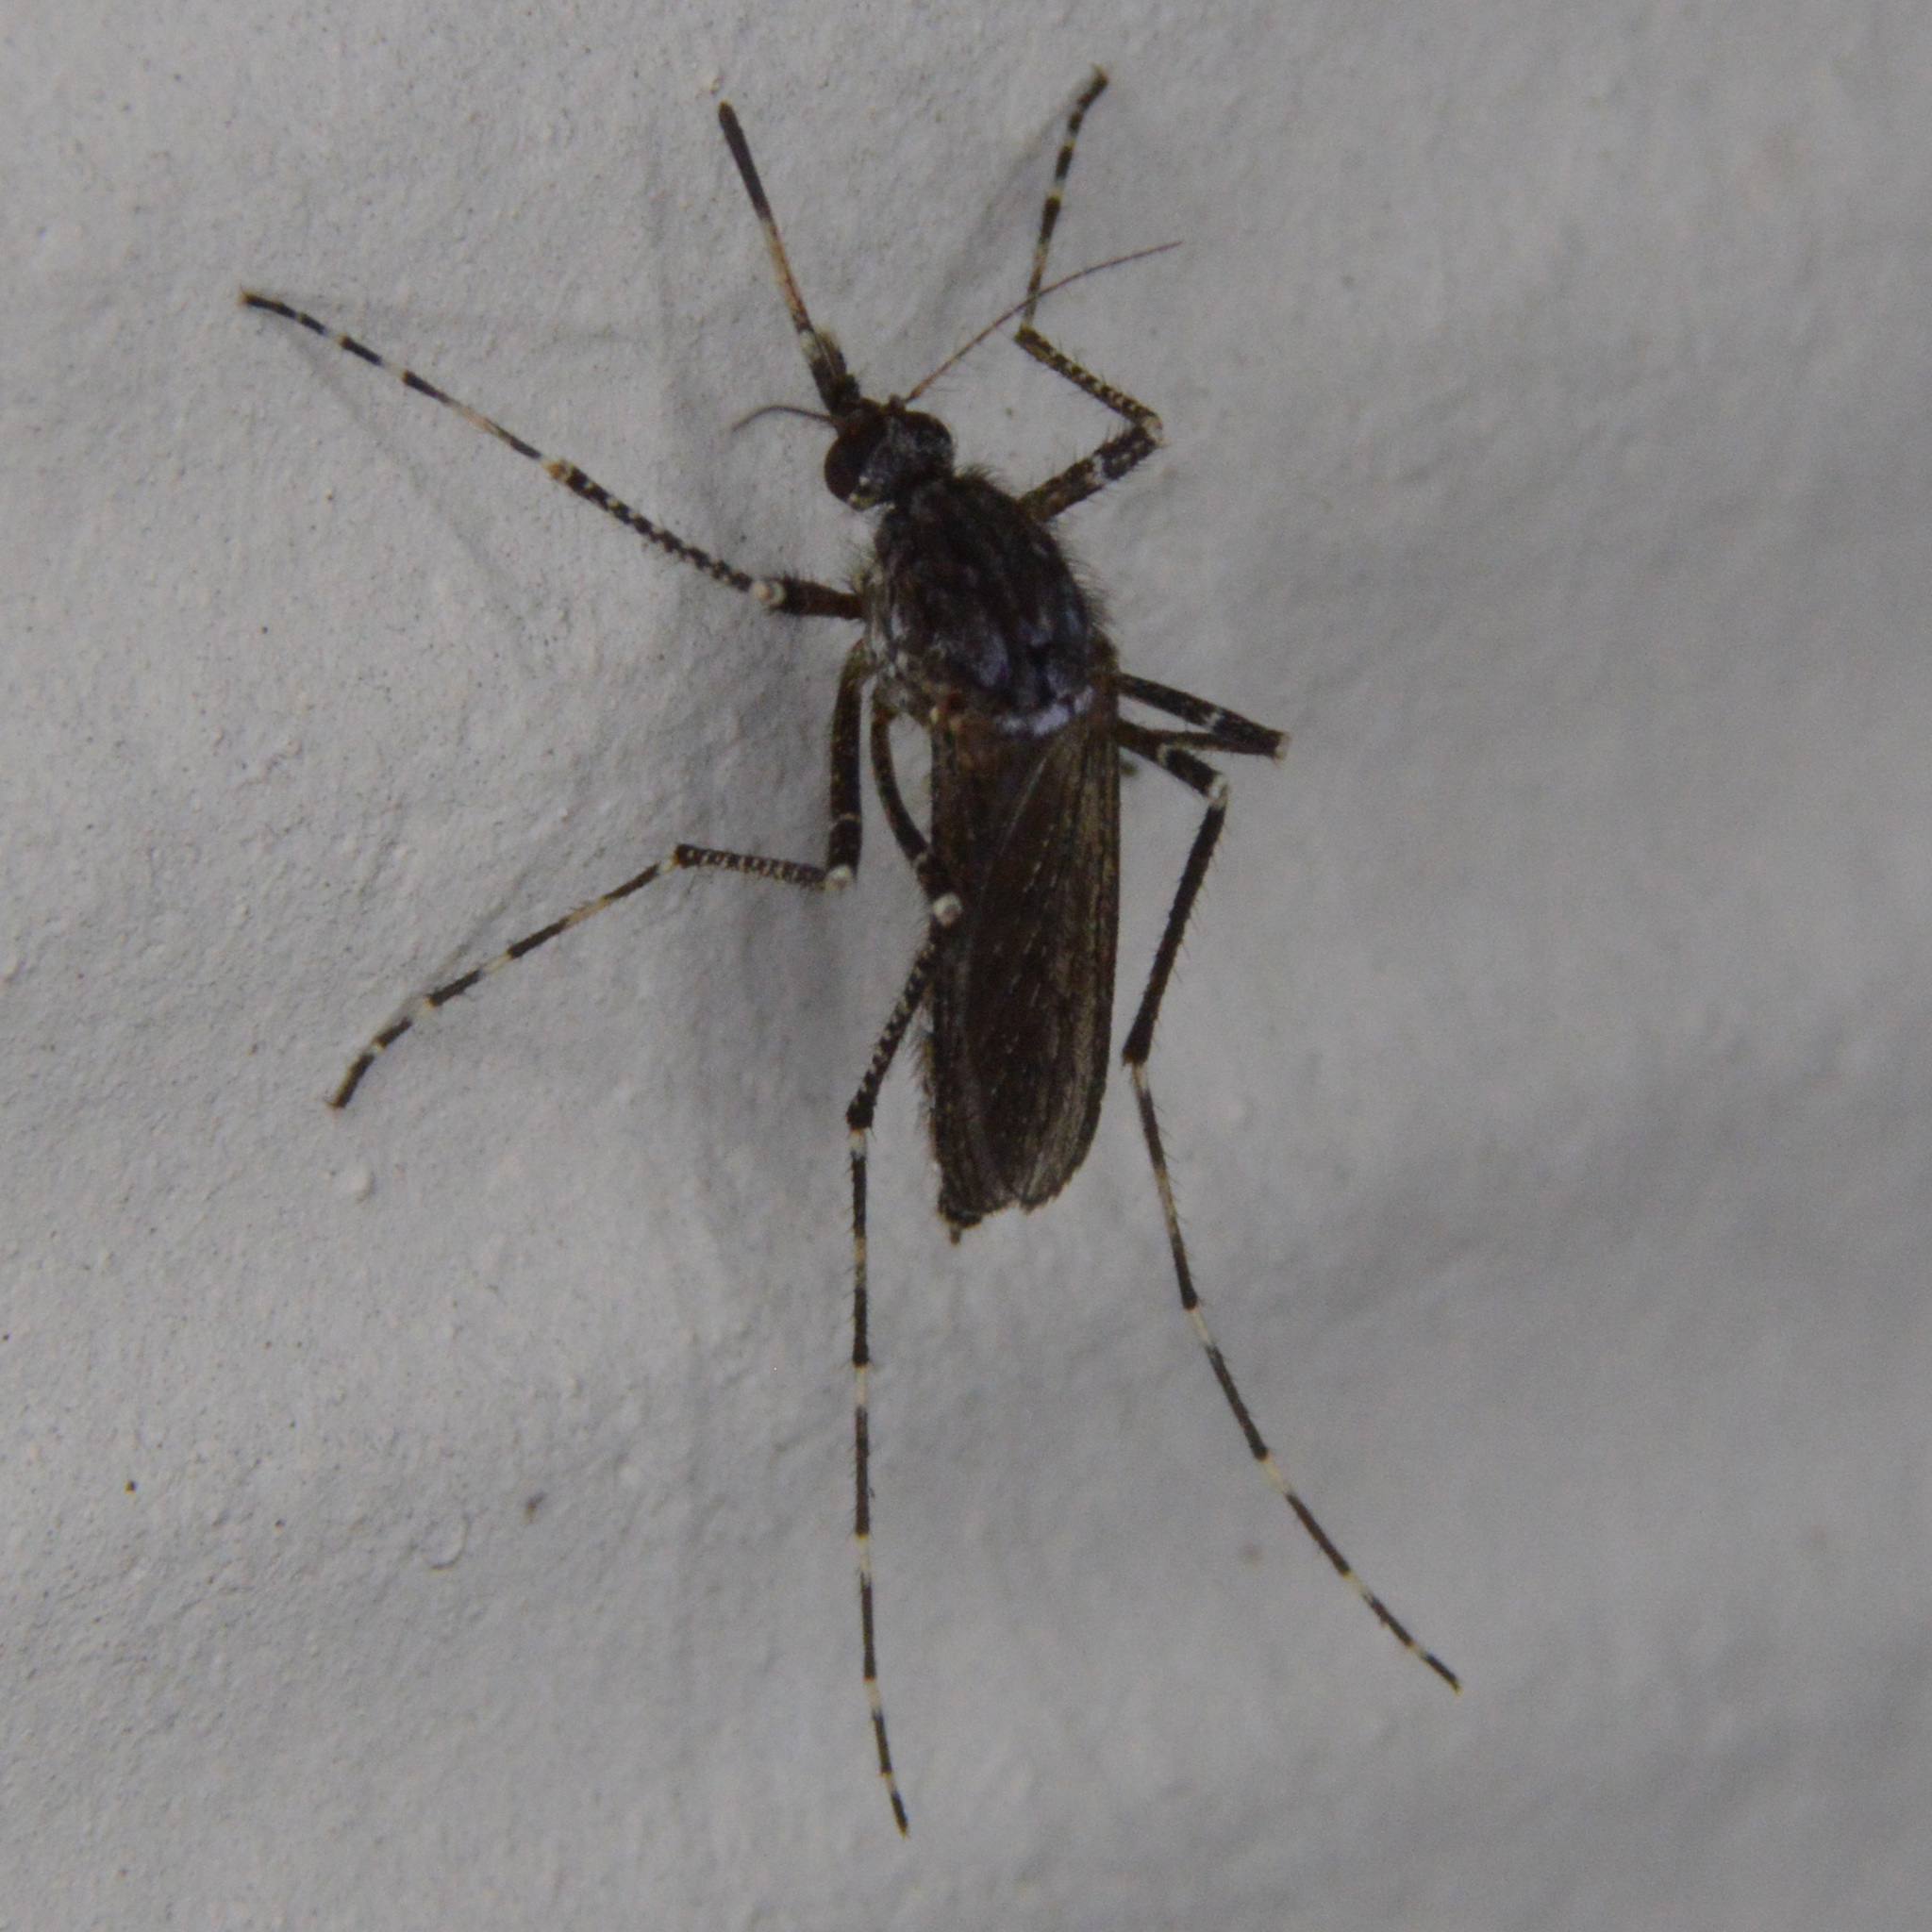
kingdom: Animalia
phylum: Arthropoda
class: Insecta
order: Diptera
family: Culicidae
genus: Psorophora
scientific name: Psorophora columbiae
